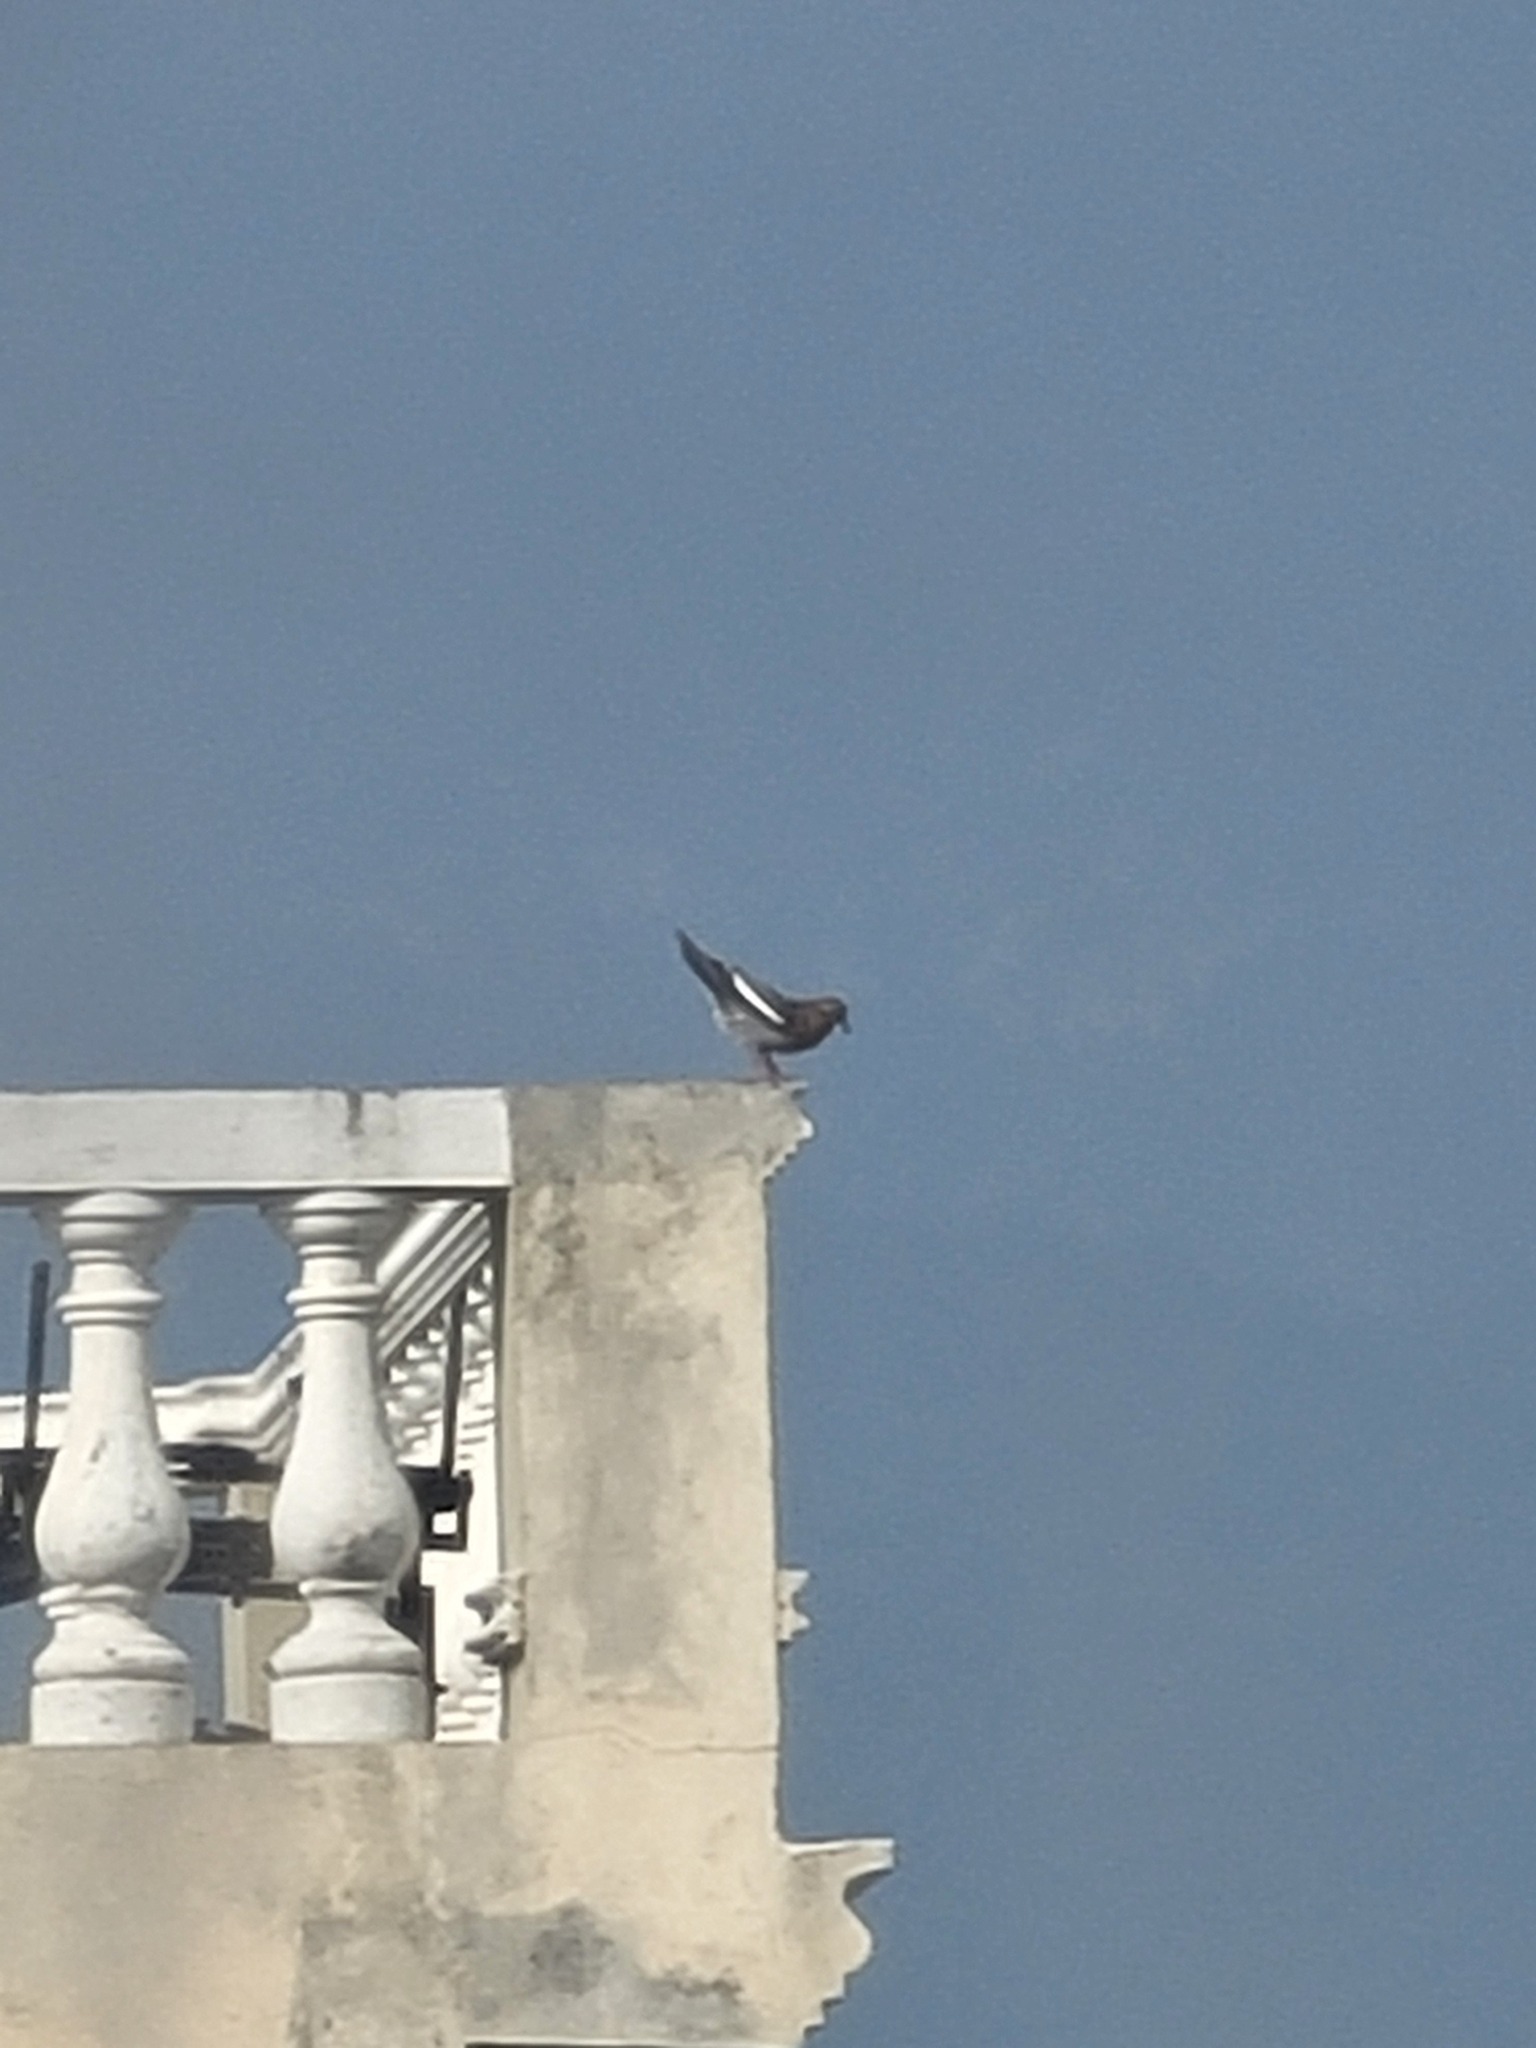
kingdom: Animalia
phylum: Chordata
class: Aves
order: Columbiformes
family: Columbidae
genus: Zenaida
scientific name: Zenaida asiatica
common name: White-winged dove
